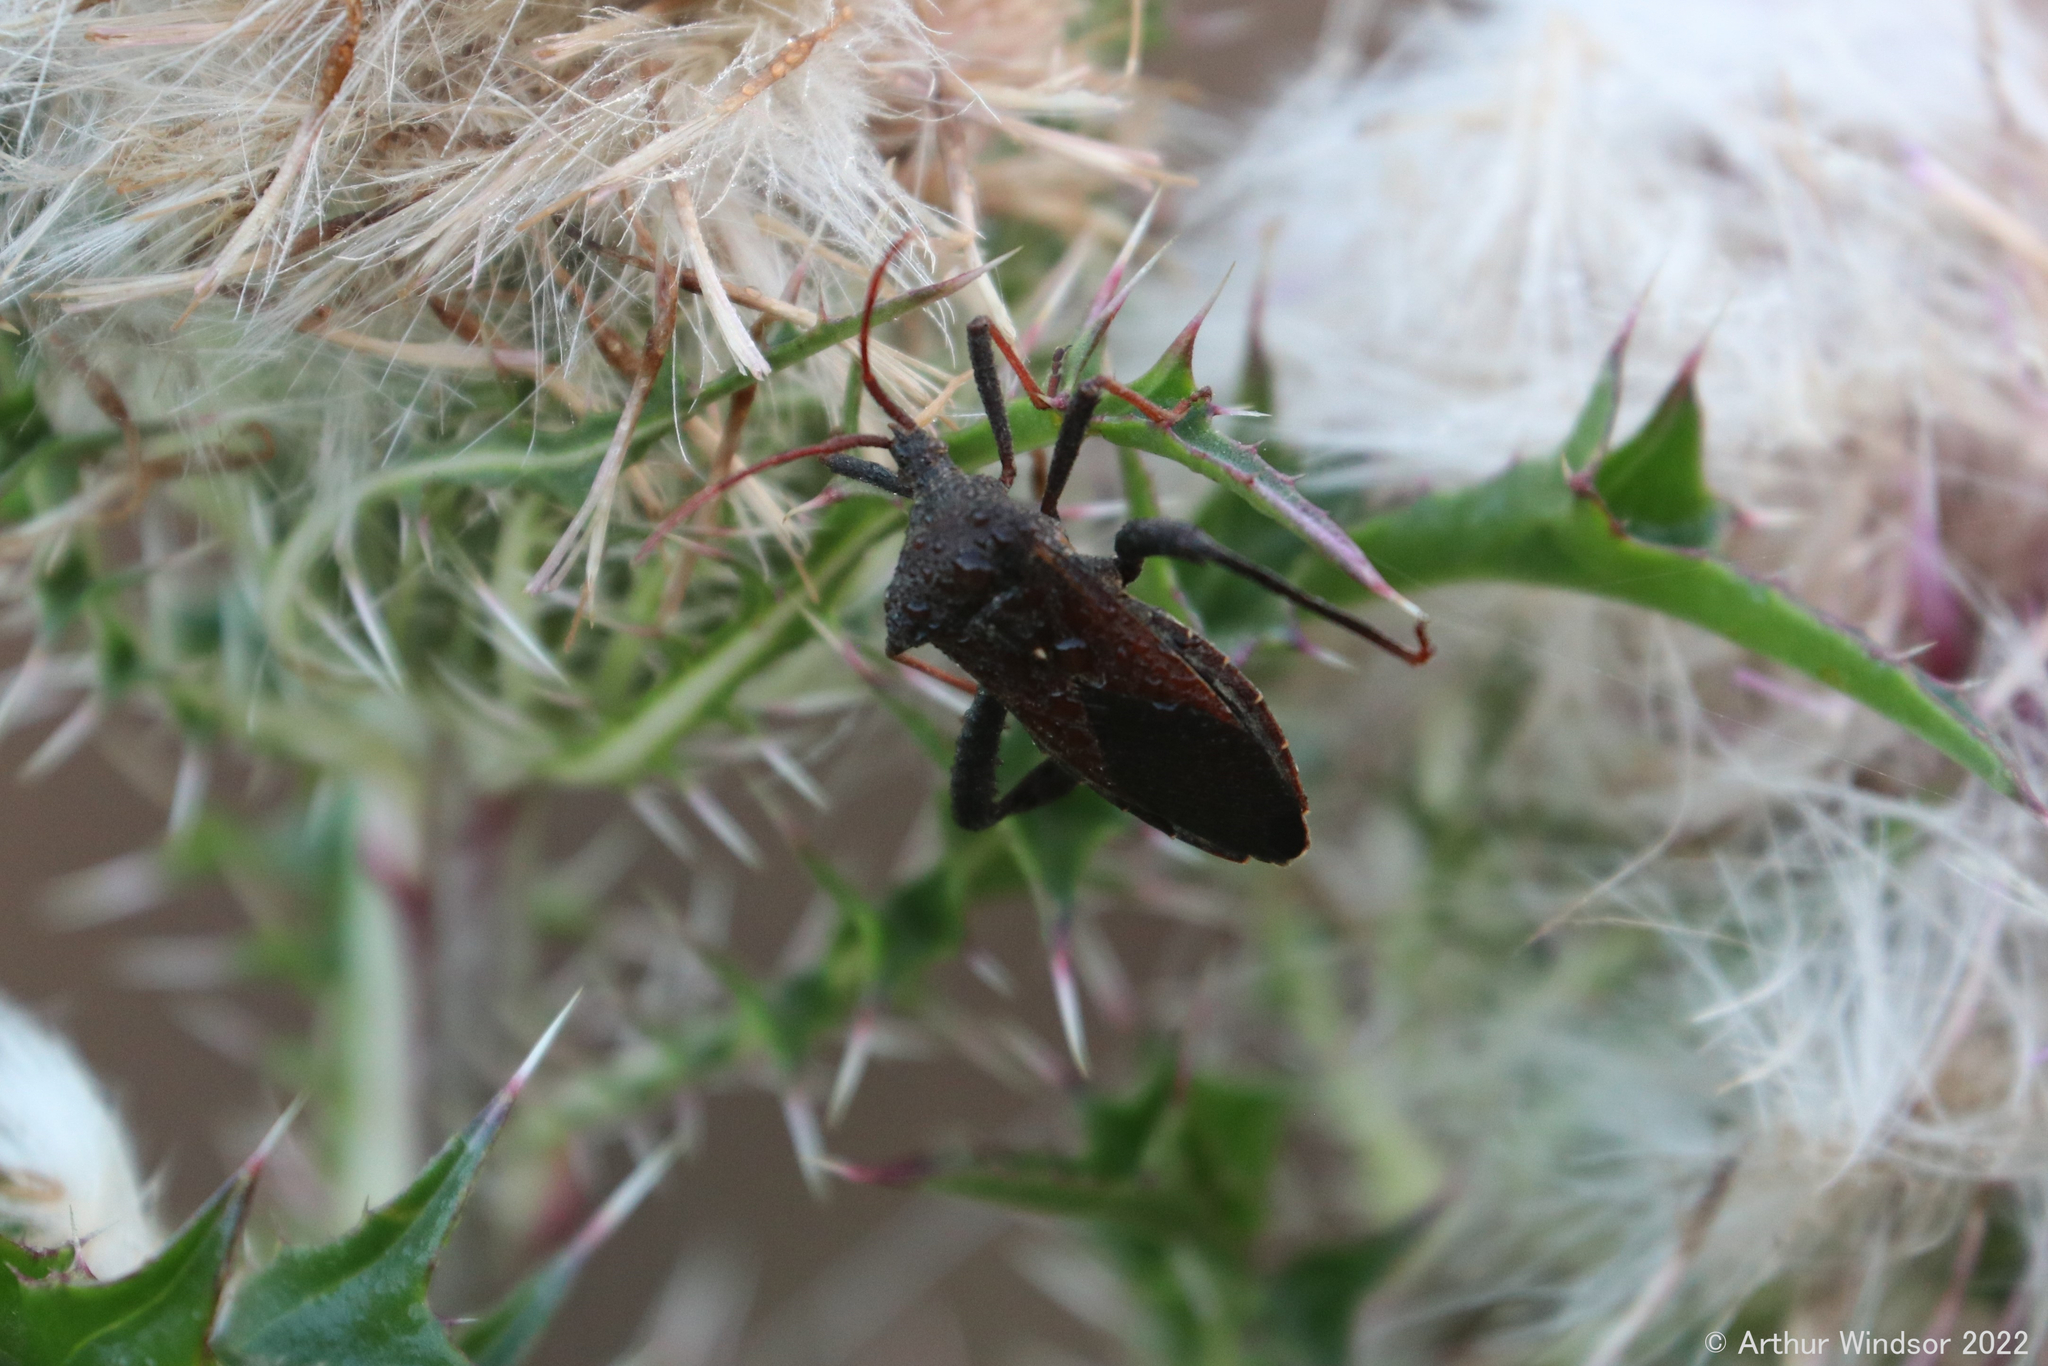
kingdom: Animalia
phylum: Arthropoda
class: Insecta
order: Hemiptera
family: Coreidae
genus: Acanthocephala
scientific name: Acanthocephala femorata
